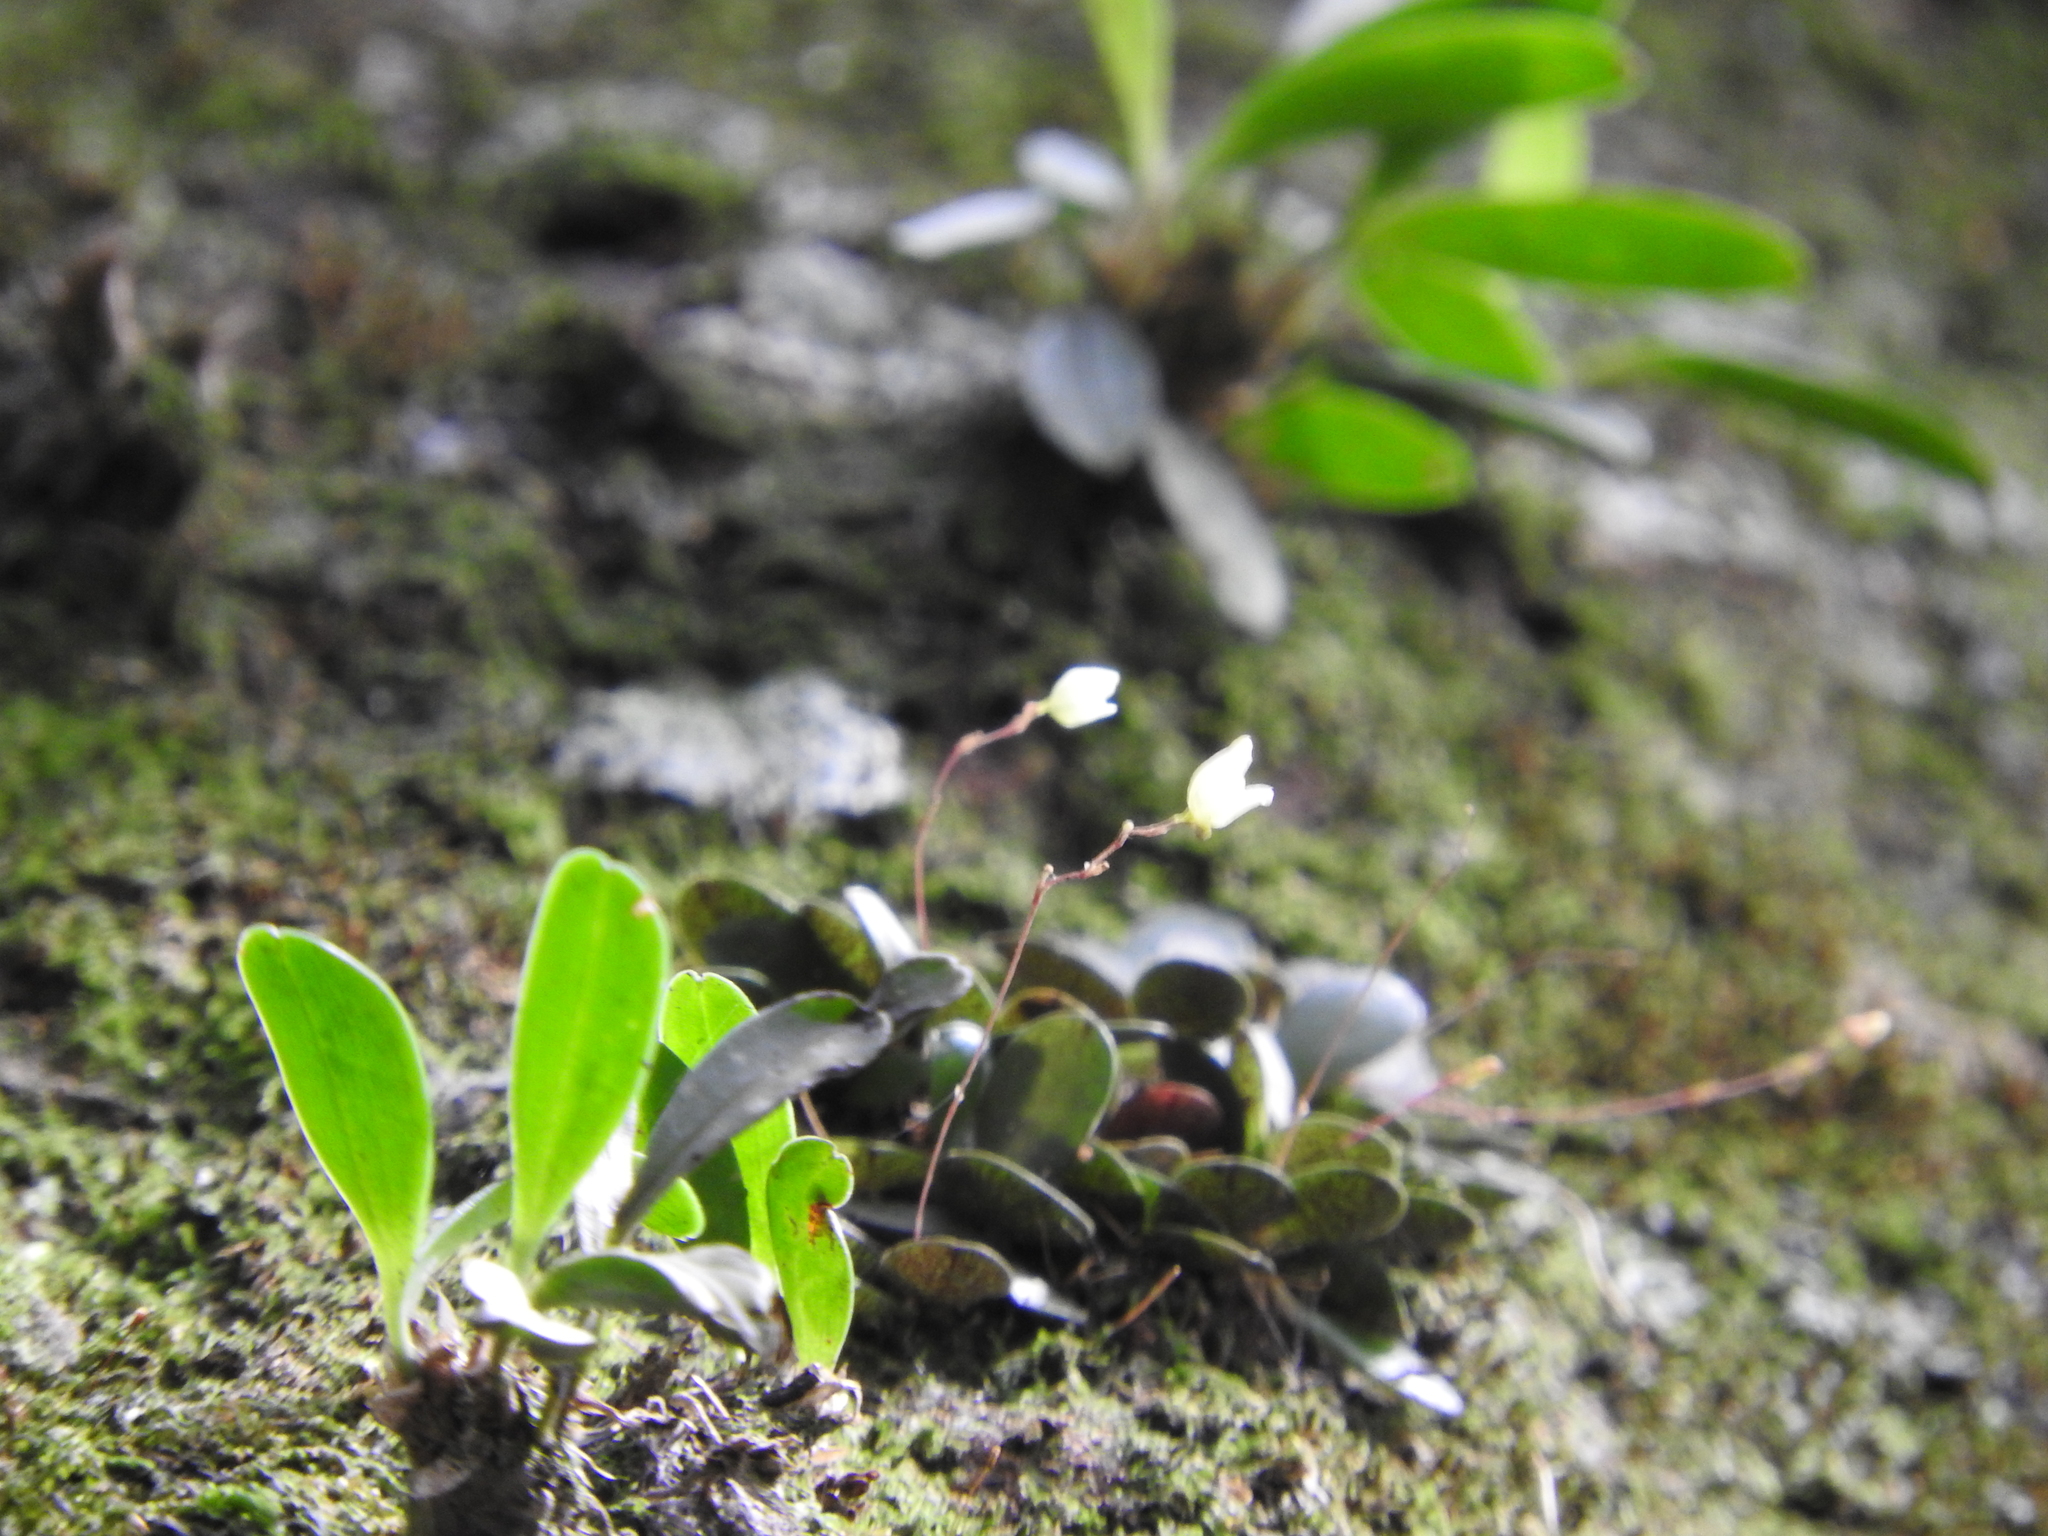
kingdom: Plantae
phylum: Tracheophyta
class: Liliopsida
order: Asparagales
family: Orchidaceae
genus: Specklinia
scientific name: Specklinia digitale
